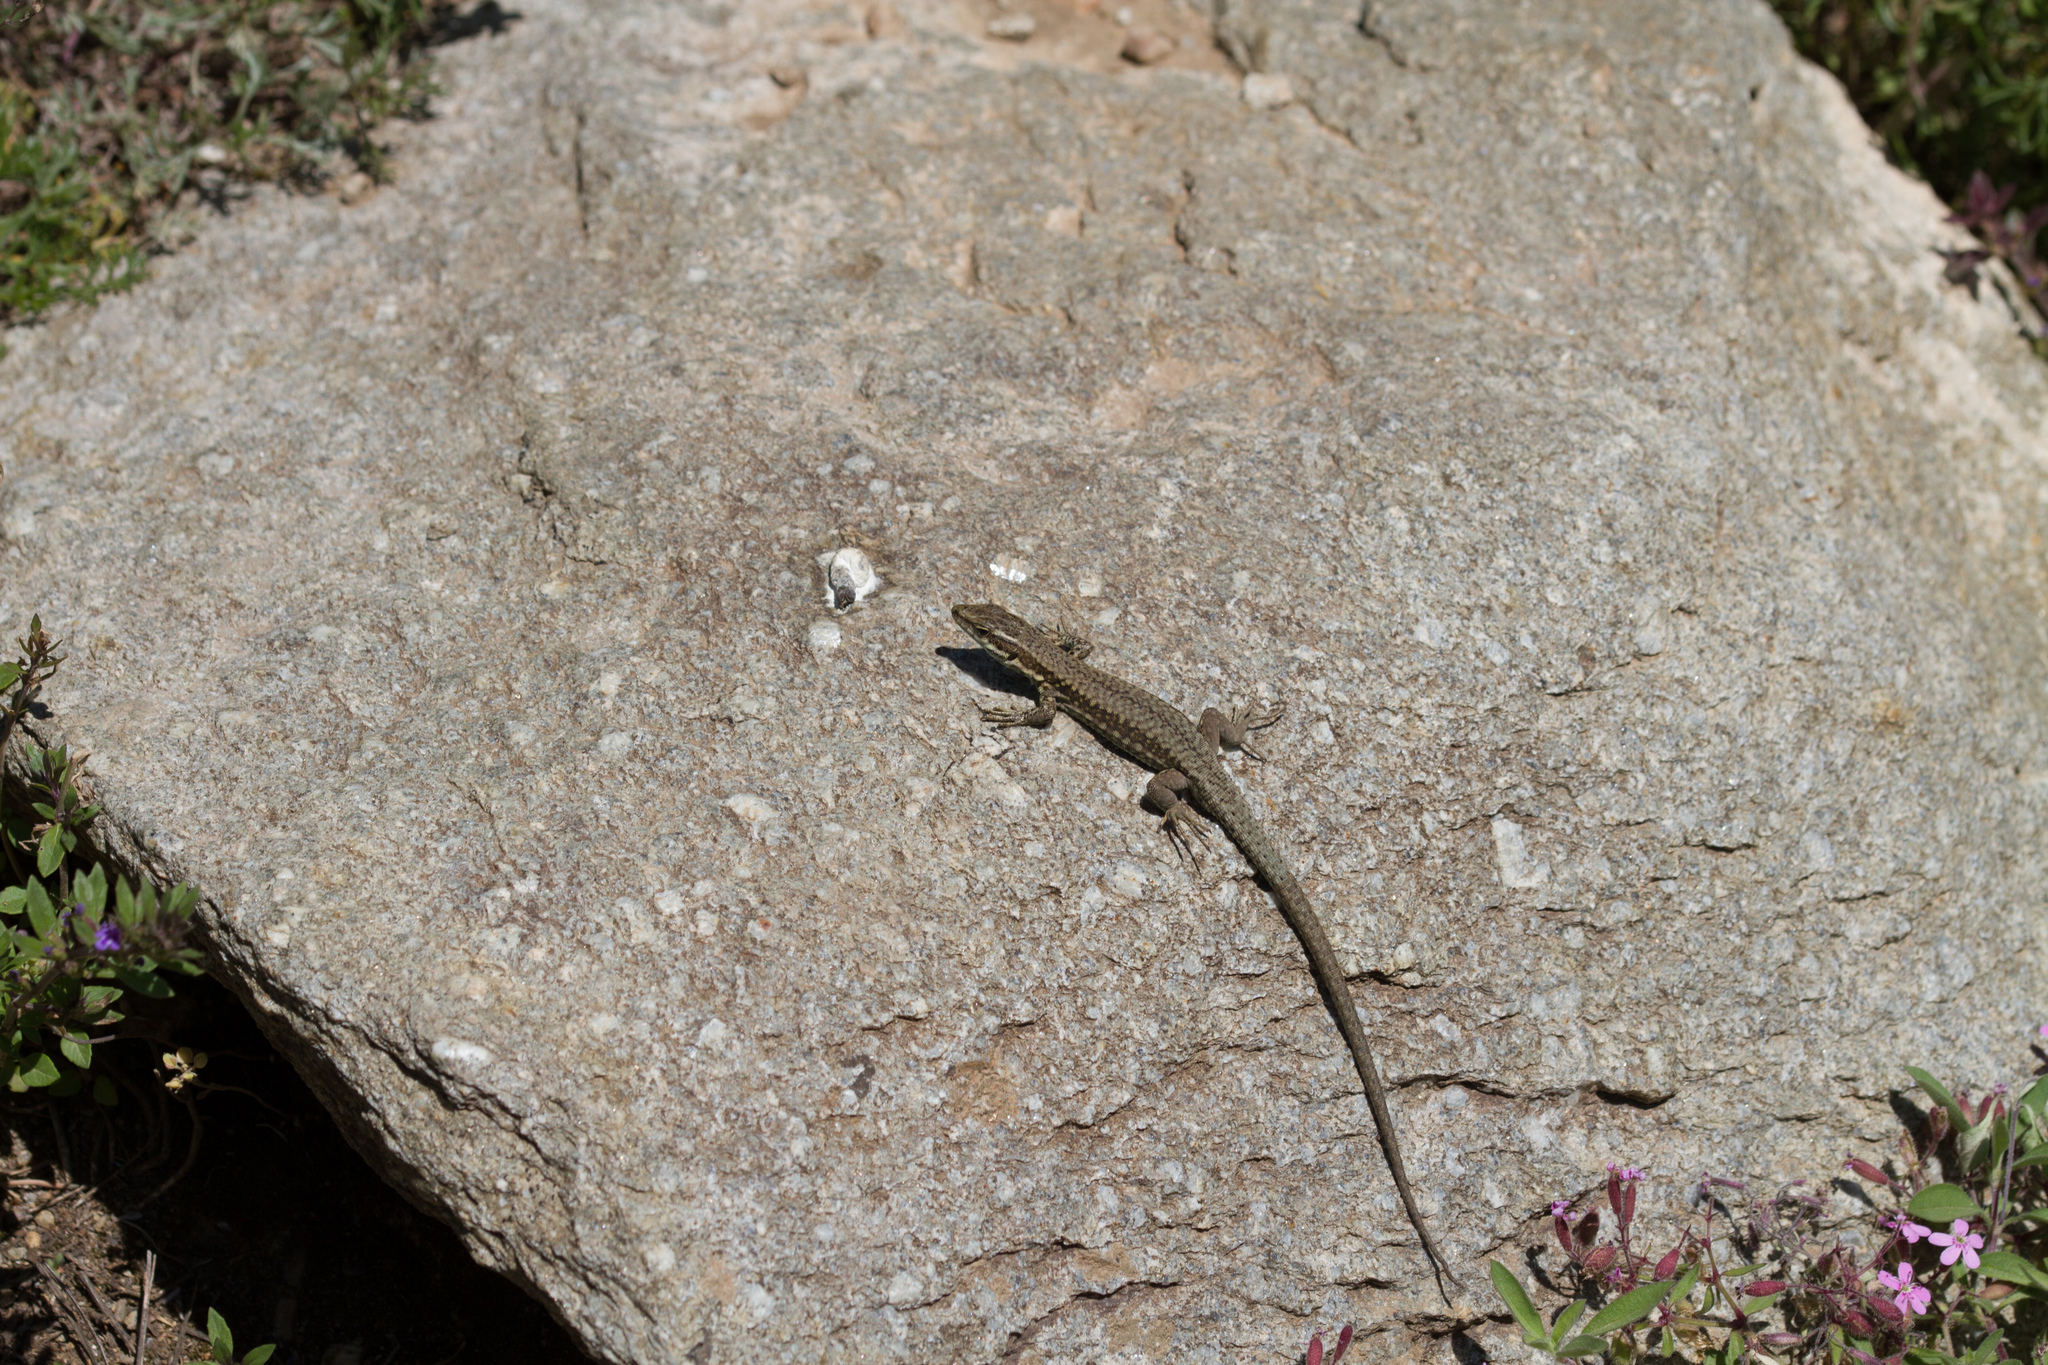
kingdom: Animalia
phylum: Chordata
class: Squamata
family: Lacertidae
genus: Podarcis
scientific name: Podarcis muralis
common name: Common wall lizard
